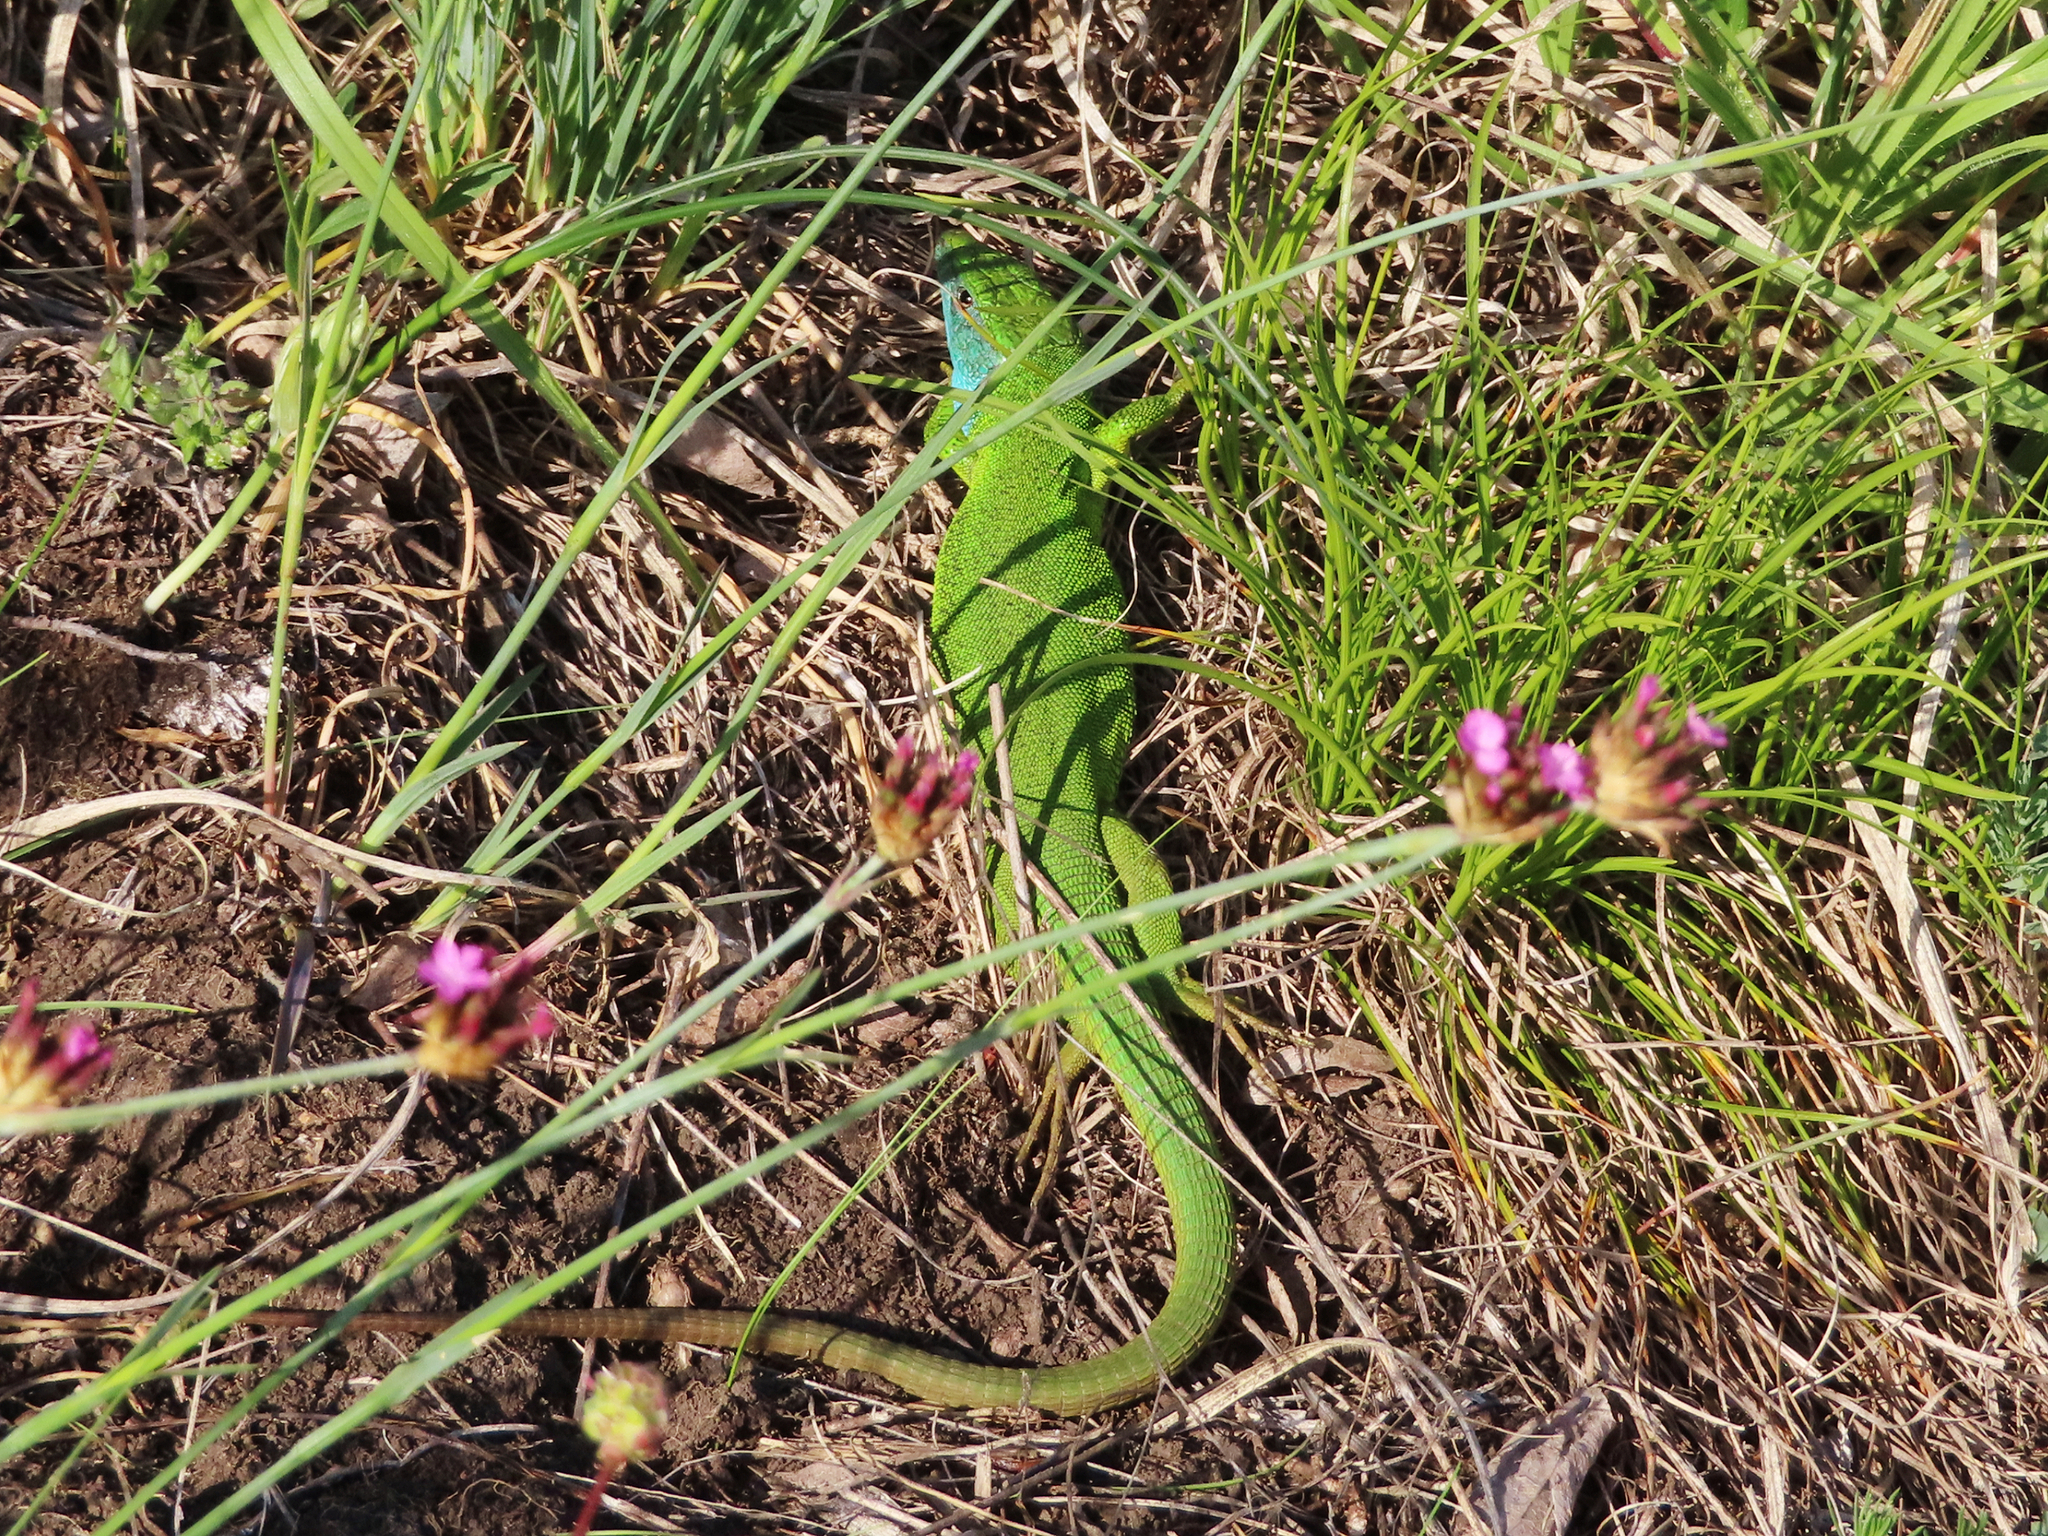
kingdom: Animalia
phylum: Chordata
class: Squamata
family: Lacertidae
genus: Lacerta
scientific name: Lacerta viridis
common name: European green lizard
